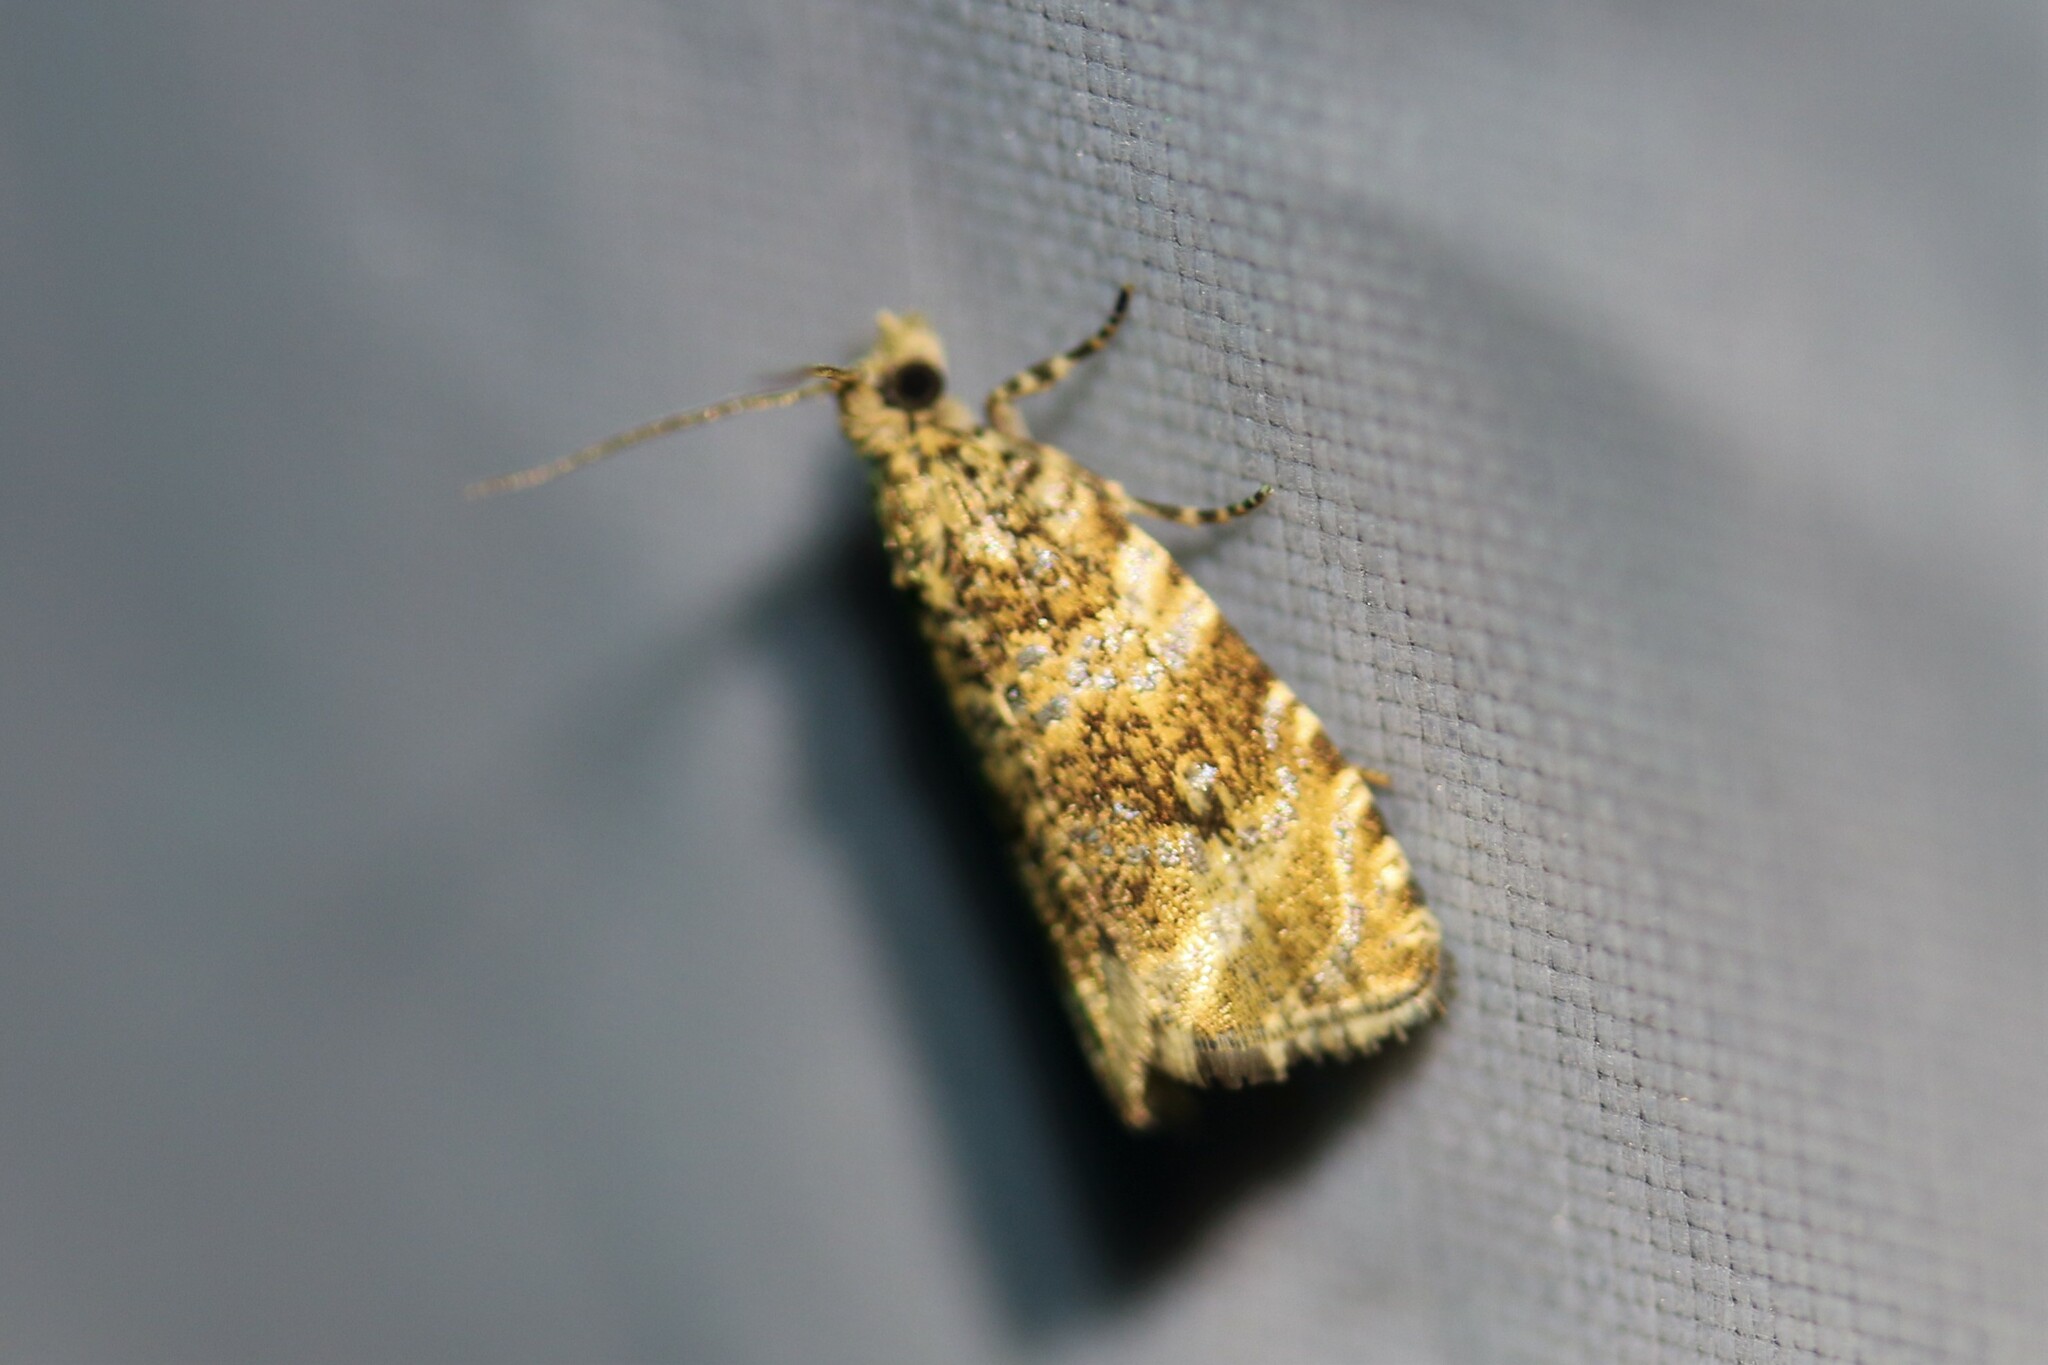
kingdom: Animalia
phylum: Arthropoda
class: Insecta
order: Lepidoptera
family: Tortricidae
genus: Syricoris
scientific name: Syricoris lacunana
